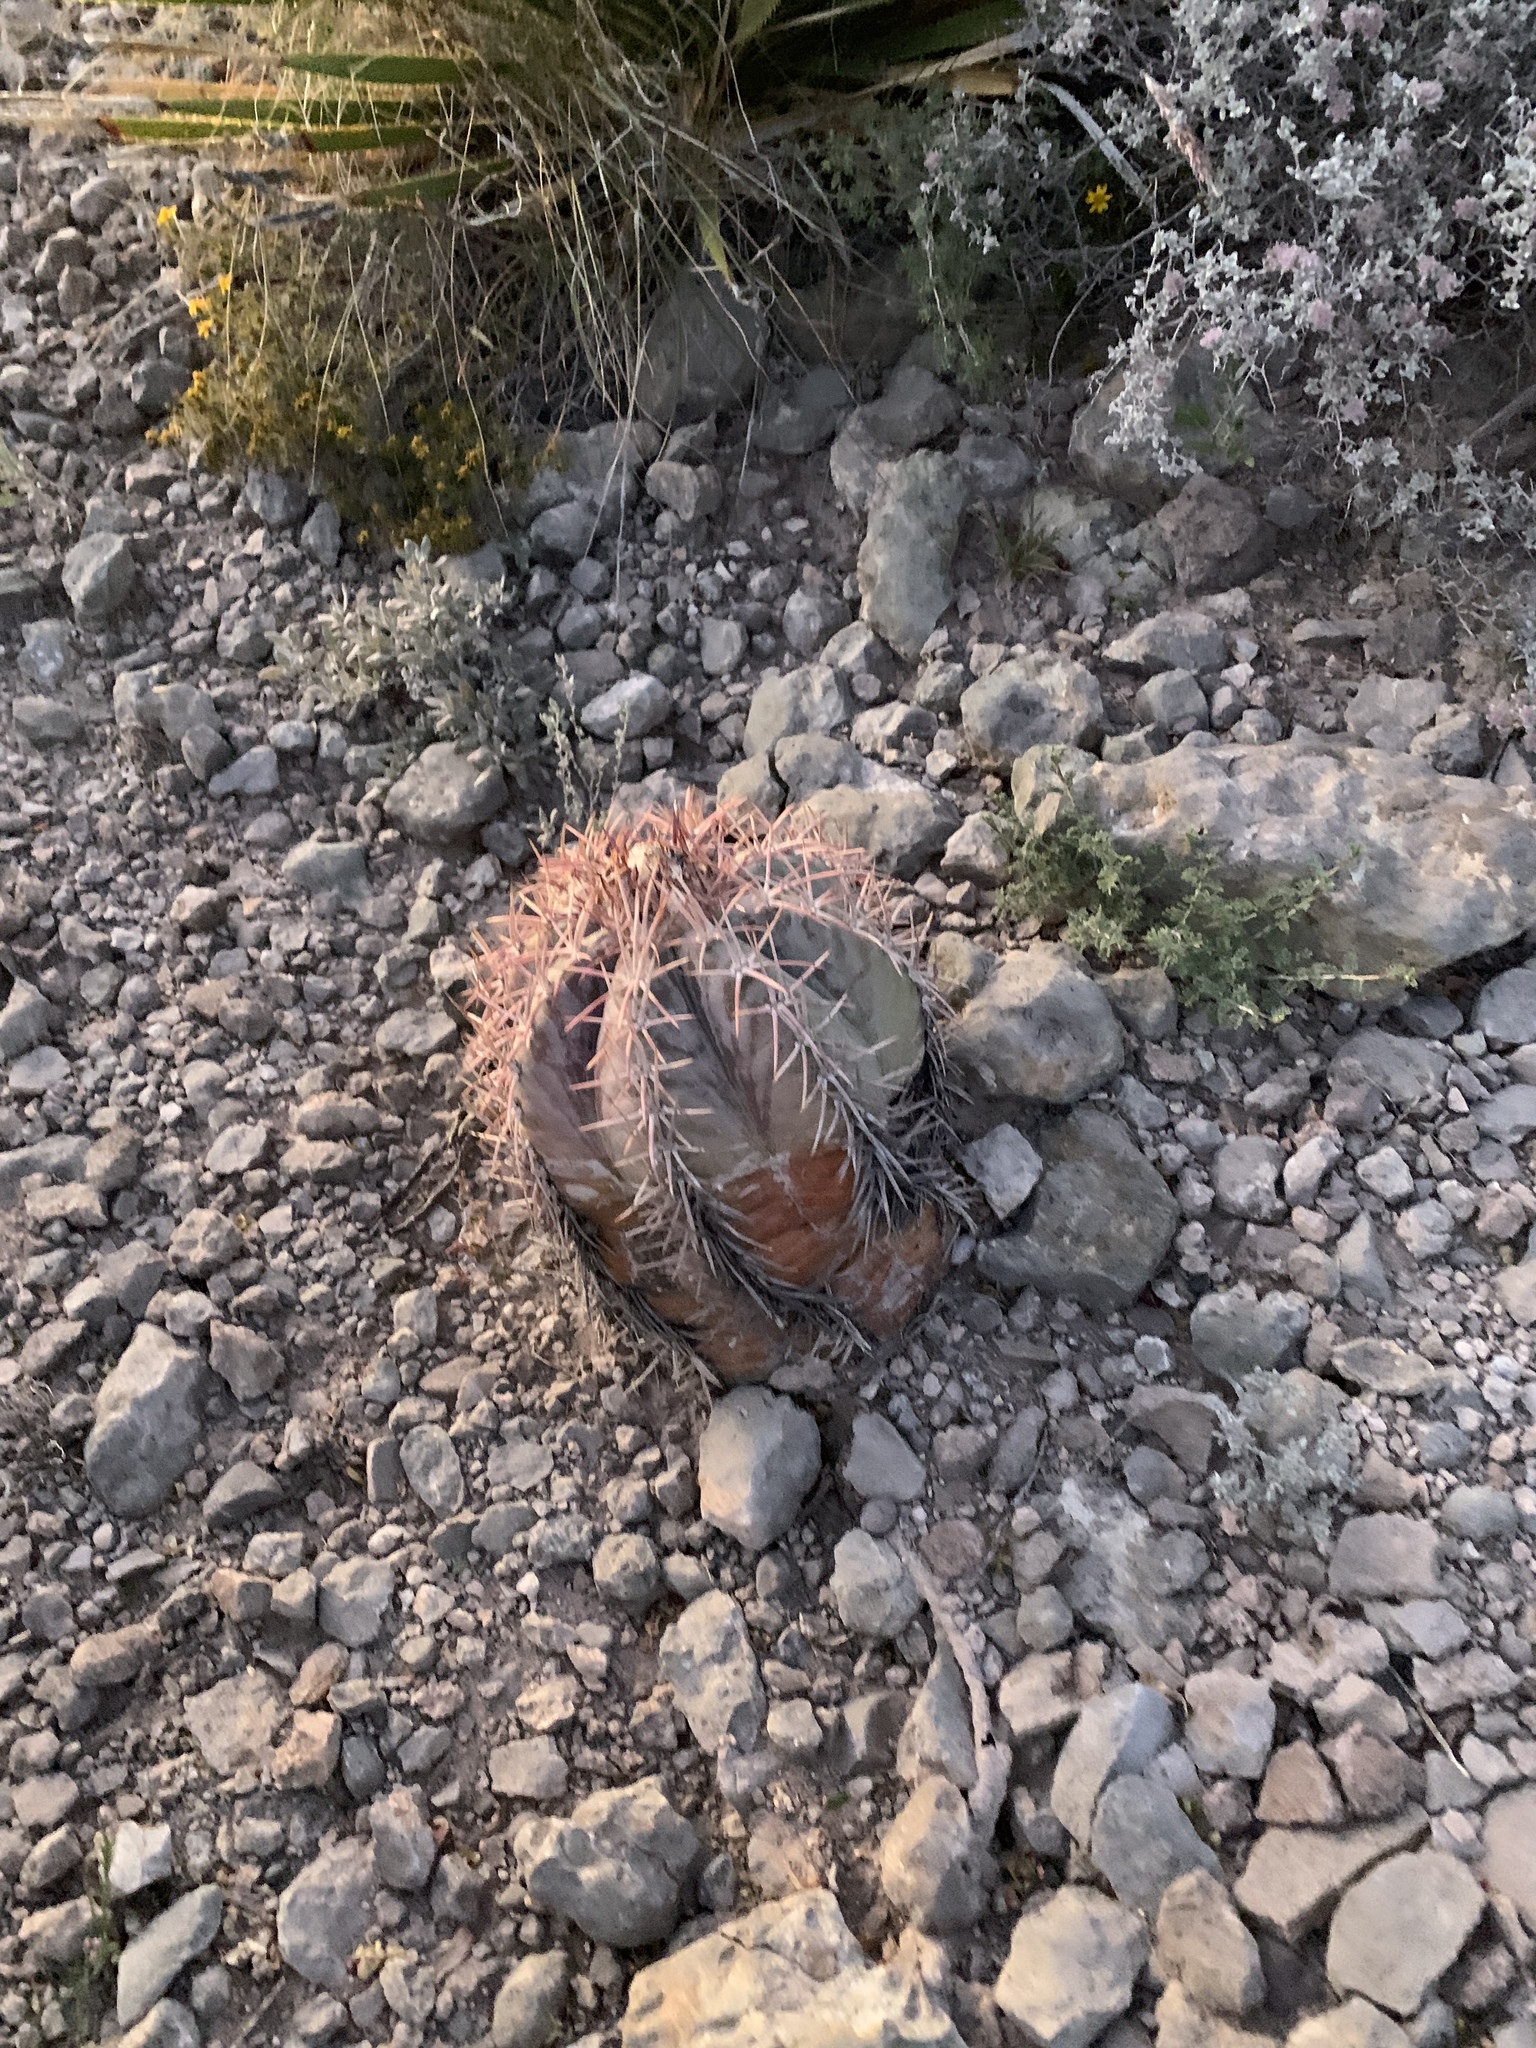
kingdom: Plantae
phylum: Tracheophyta
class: Magnoliopsida
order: Caryophyllales
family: Cactaceae
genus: Echinocactus
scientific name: Echinocactus horizonthalonius
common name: Devilshead
